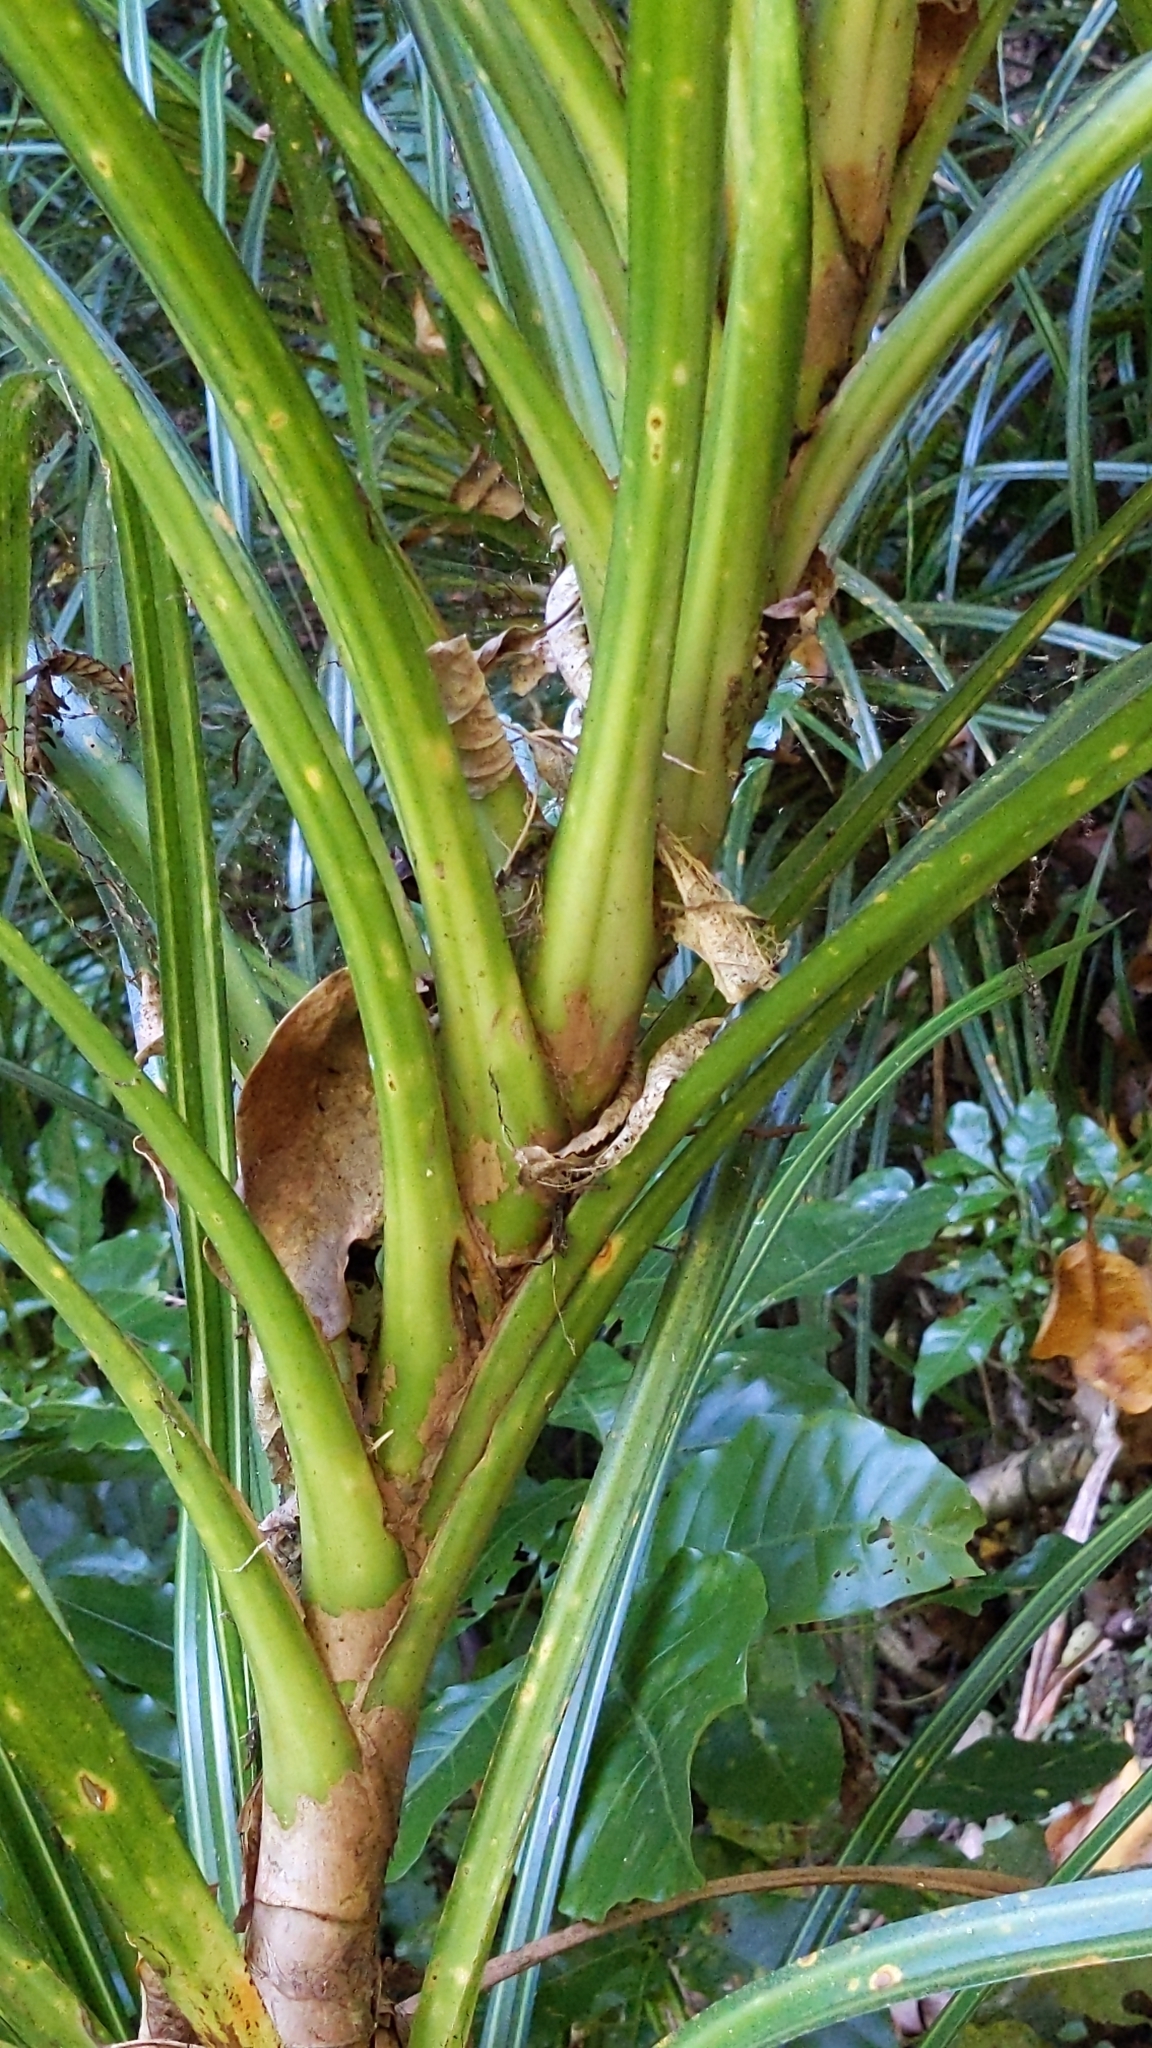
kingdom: Plantae
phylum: Tracheophyta
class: Liliopsida
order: Pandanales
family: Pandanaceae
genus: Freycinetia
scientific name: Freycinetia banksii
